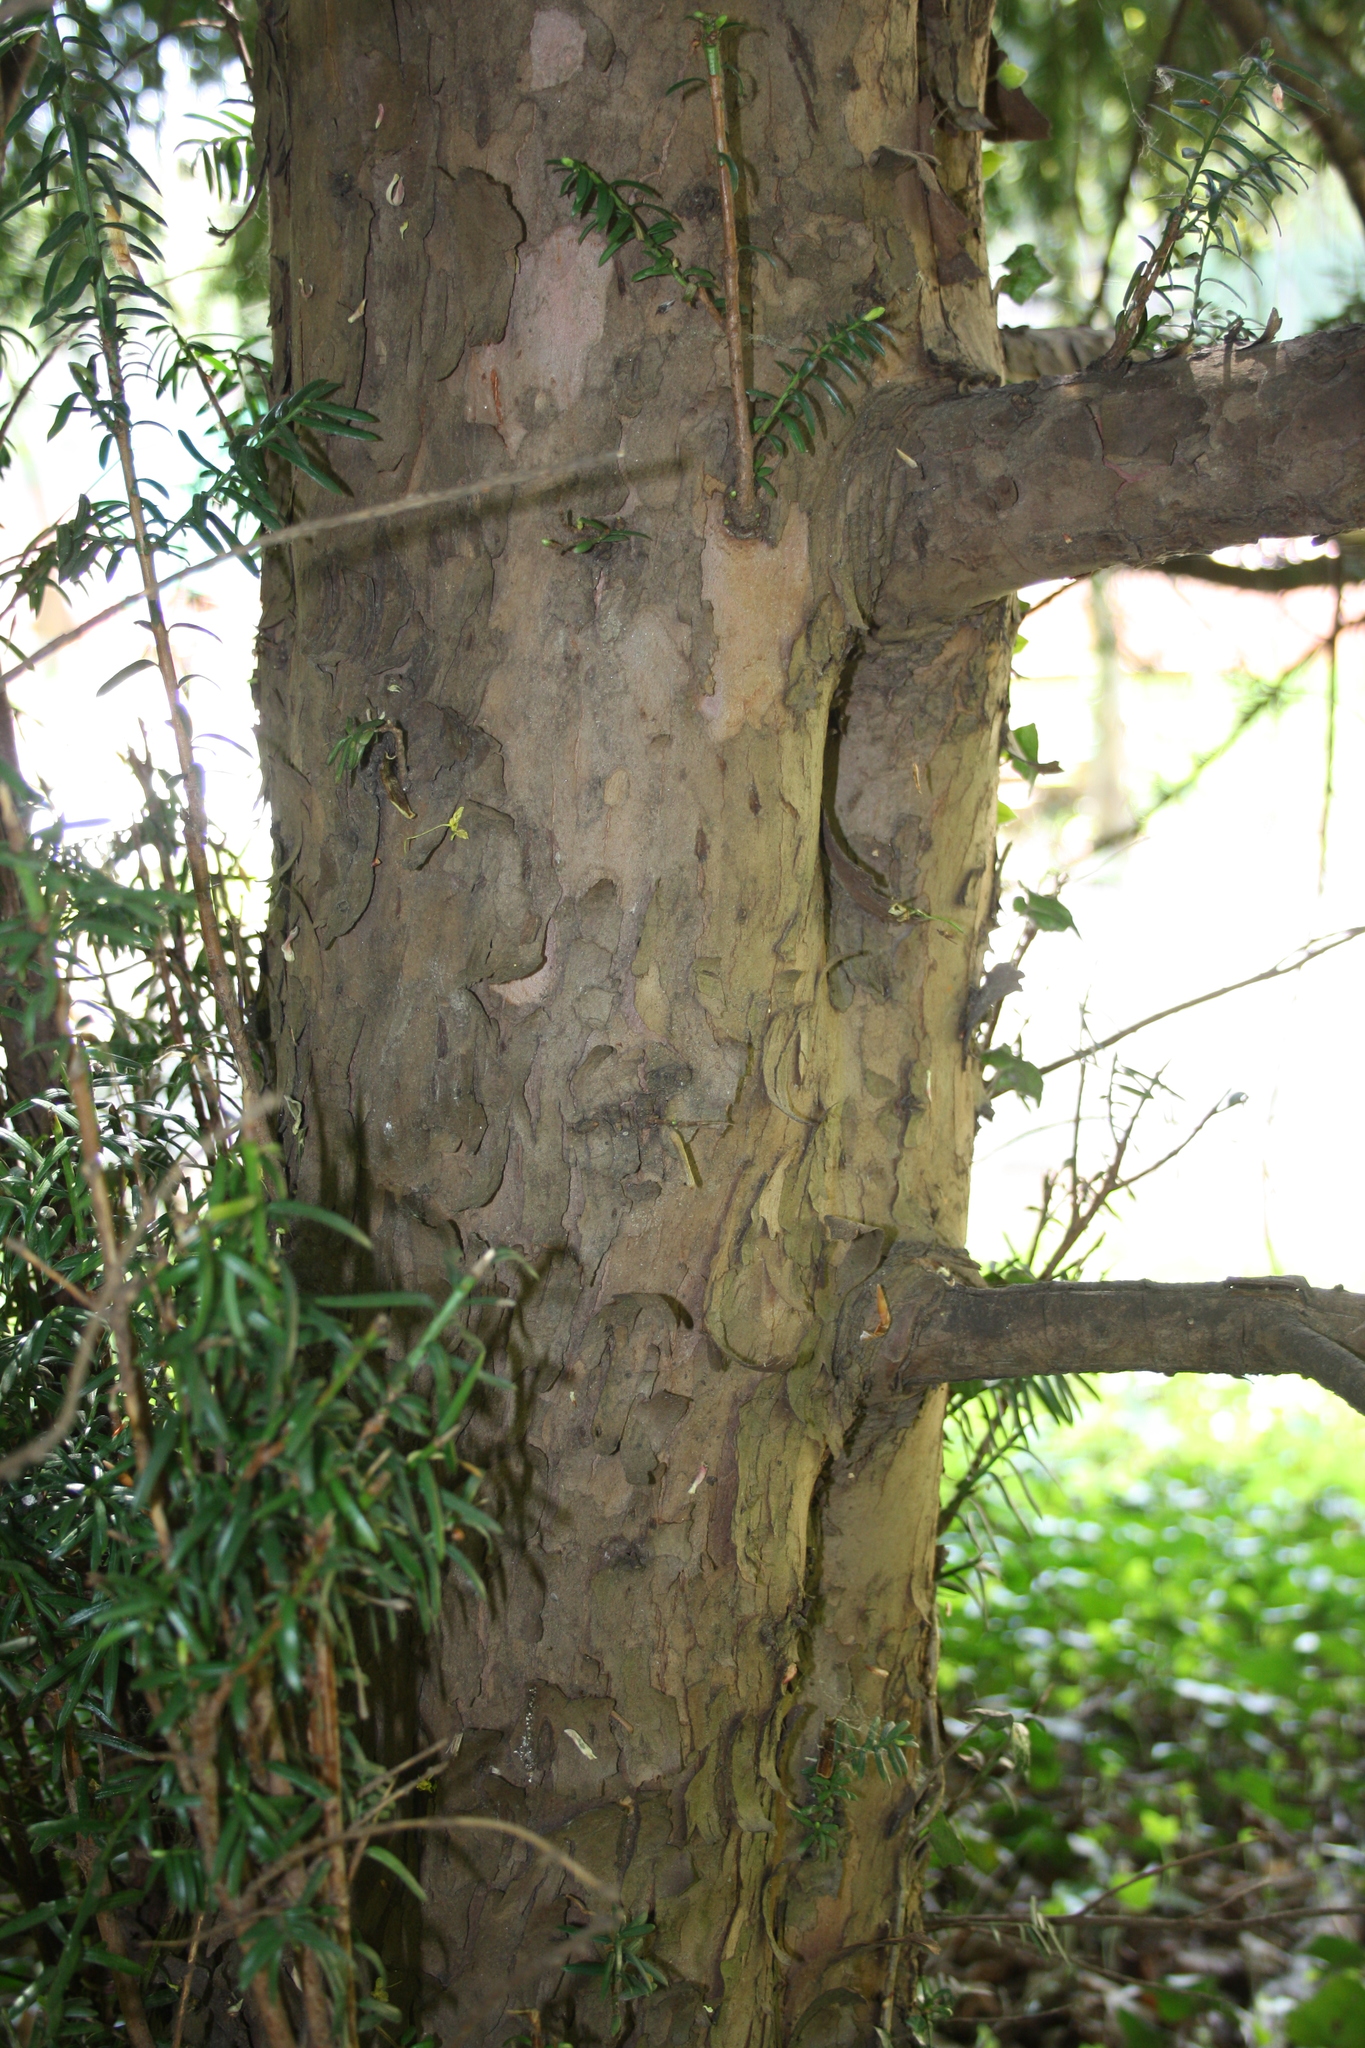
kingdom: Plantae
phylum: Tracheophyta
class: Pinopsida
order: Pinales
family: Taxaceae
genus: Taxus
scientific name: Taxus baccata
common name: Yew
